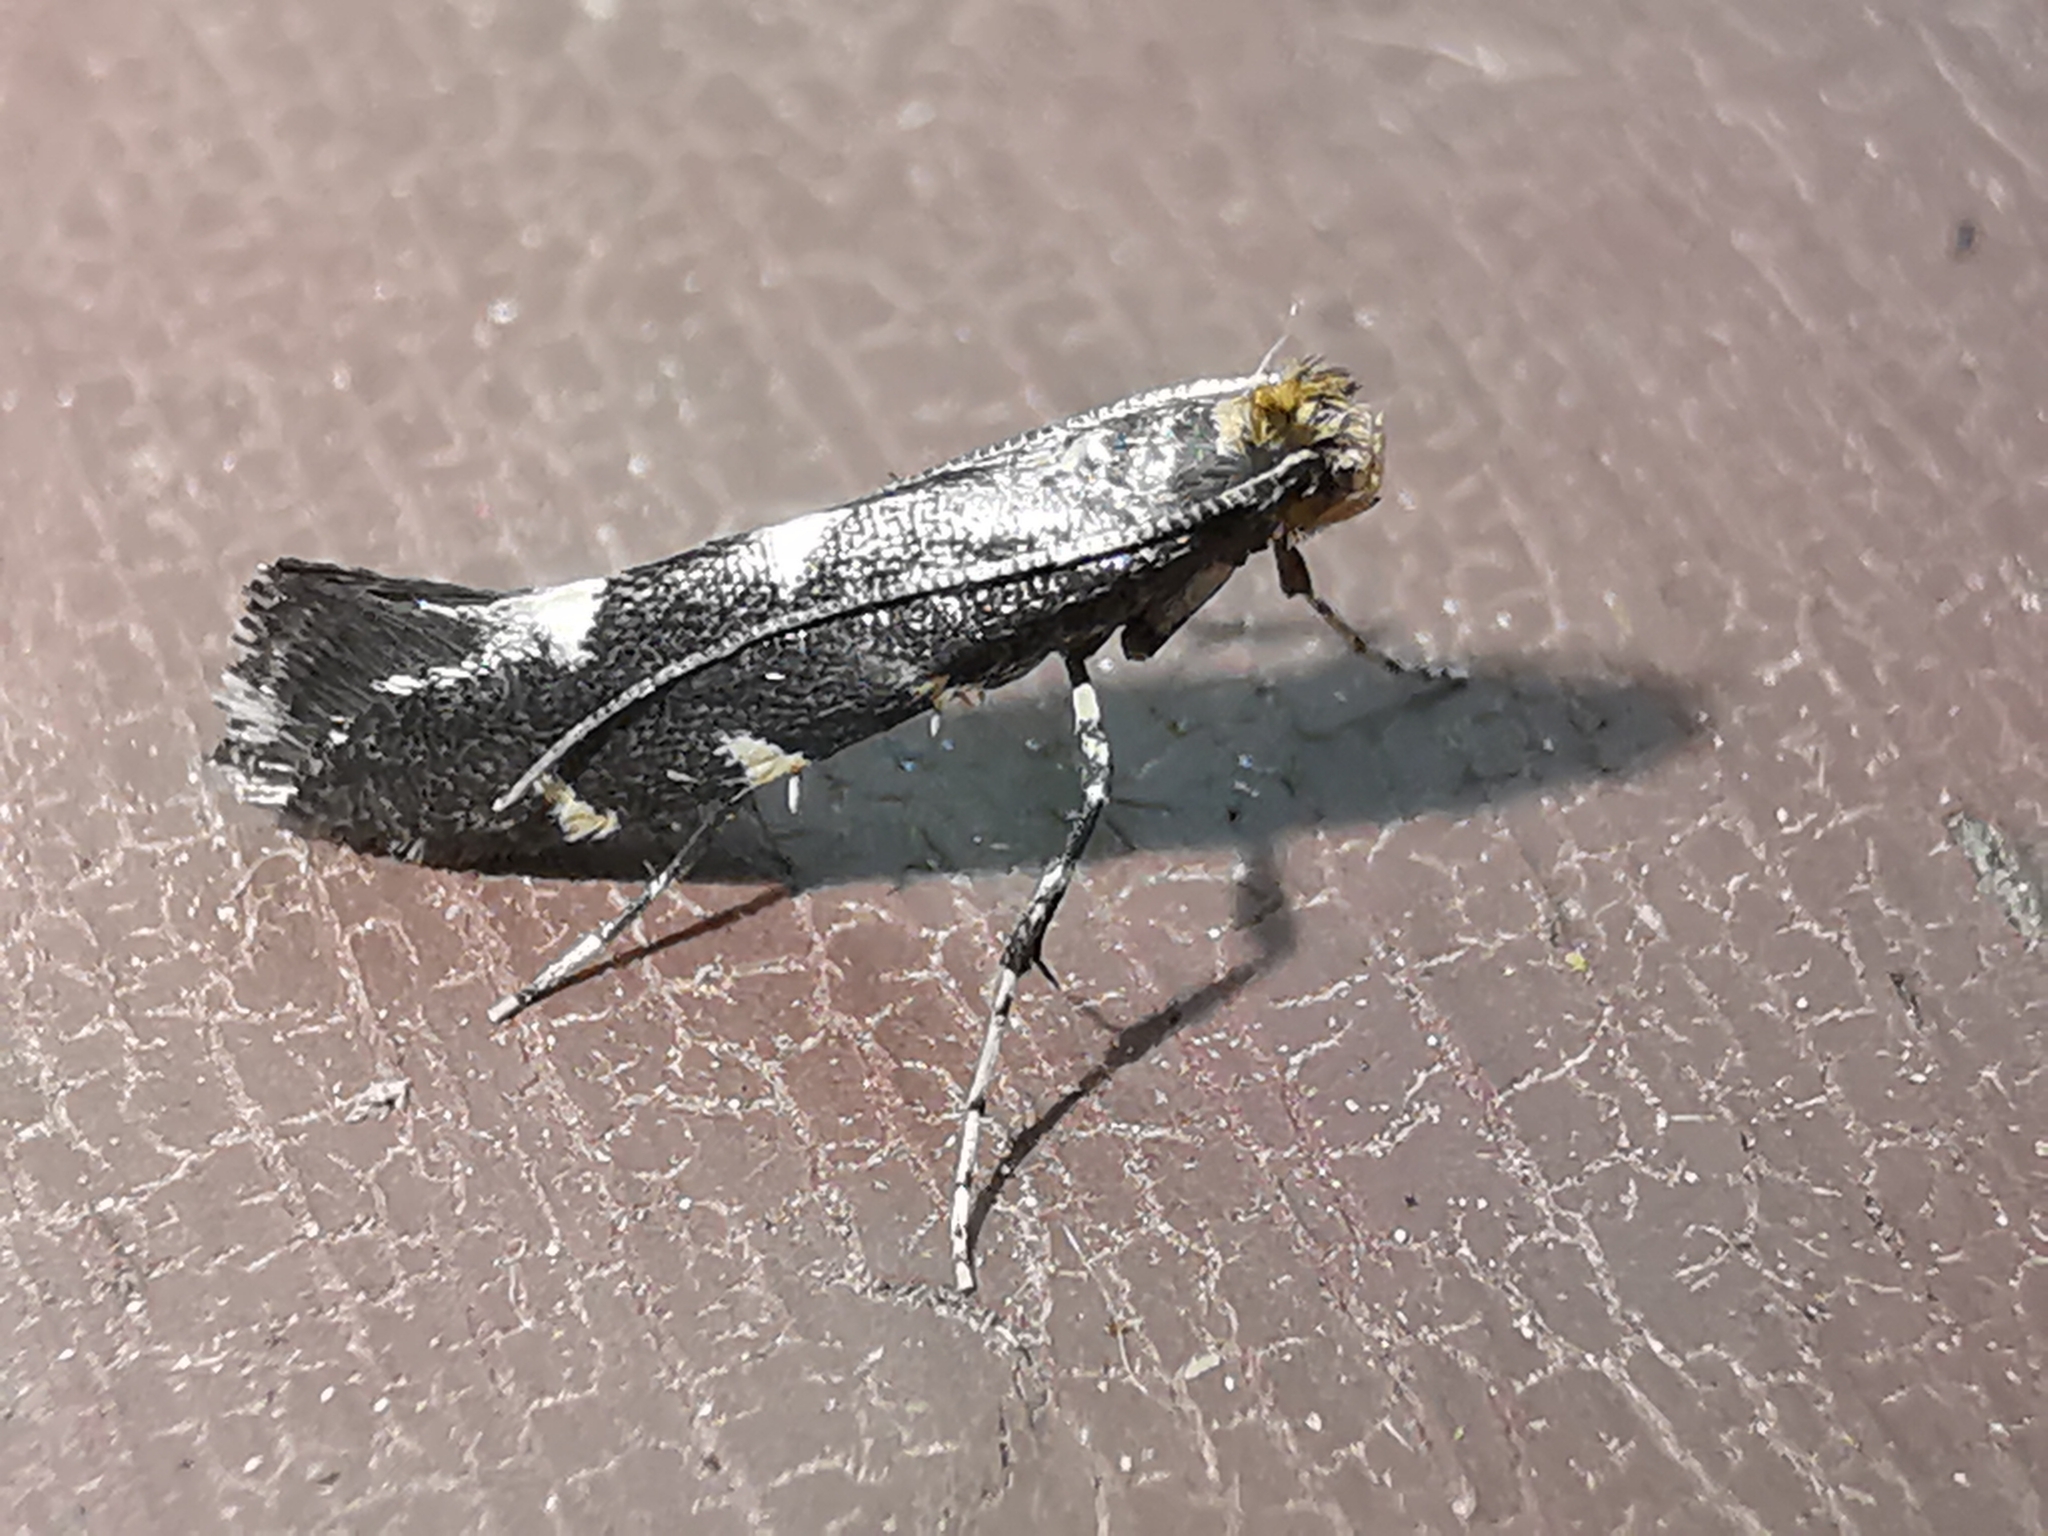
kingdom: Animalia
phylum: Arthropoda
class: Insecta
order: Lepidoptera
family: Gracillariidae
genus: Callisto
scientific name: Callisto denticulella
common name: Garden apple slender
